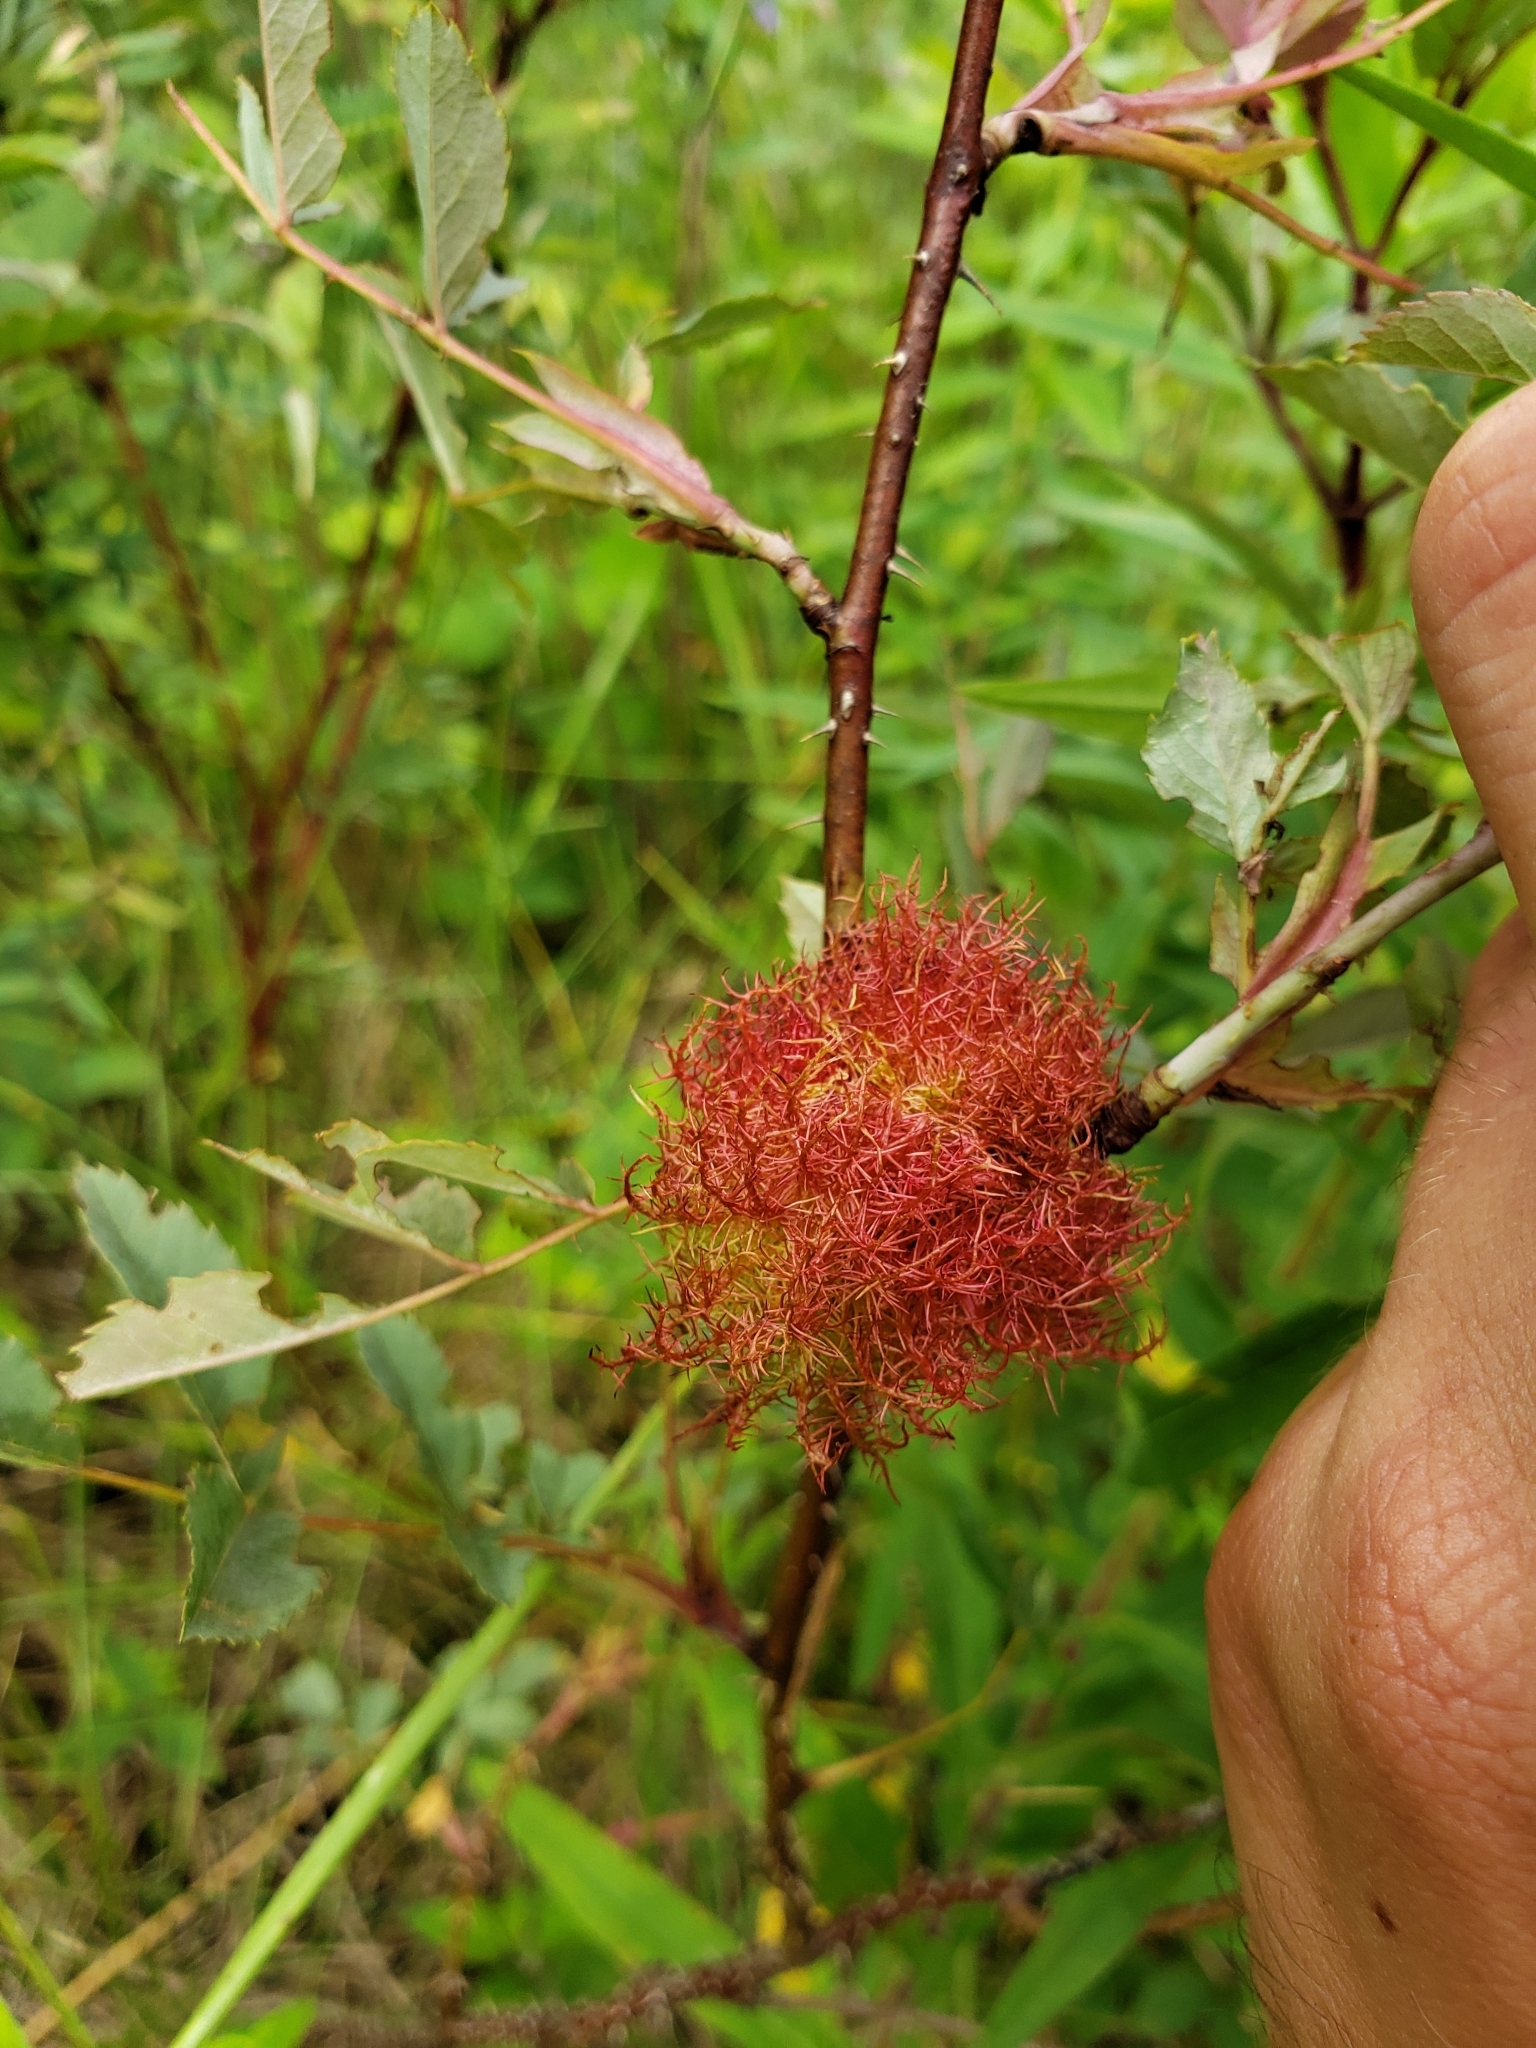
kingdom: Animalia
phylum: Arthropoda
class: Insecta
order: Hymenoptera
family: Cynipidae
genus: Diplolepis
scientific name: Diplolepis rosae
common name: Bedeguar gall
